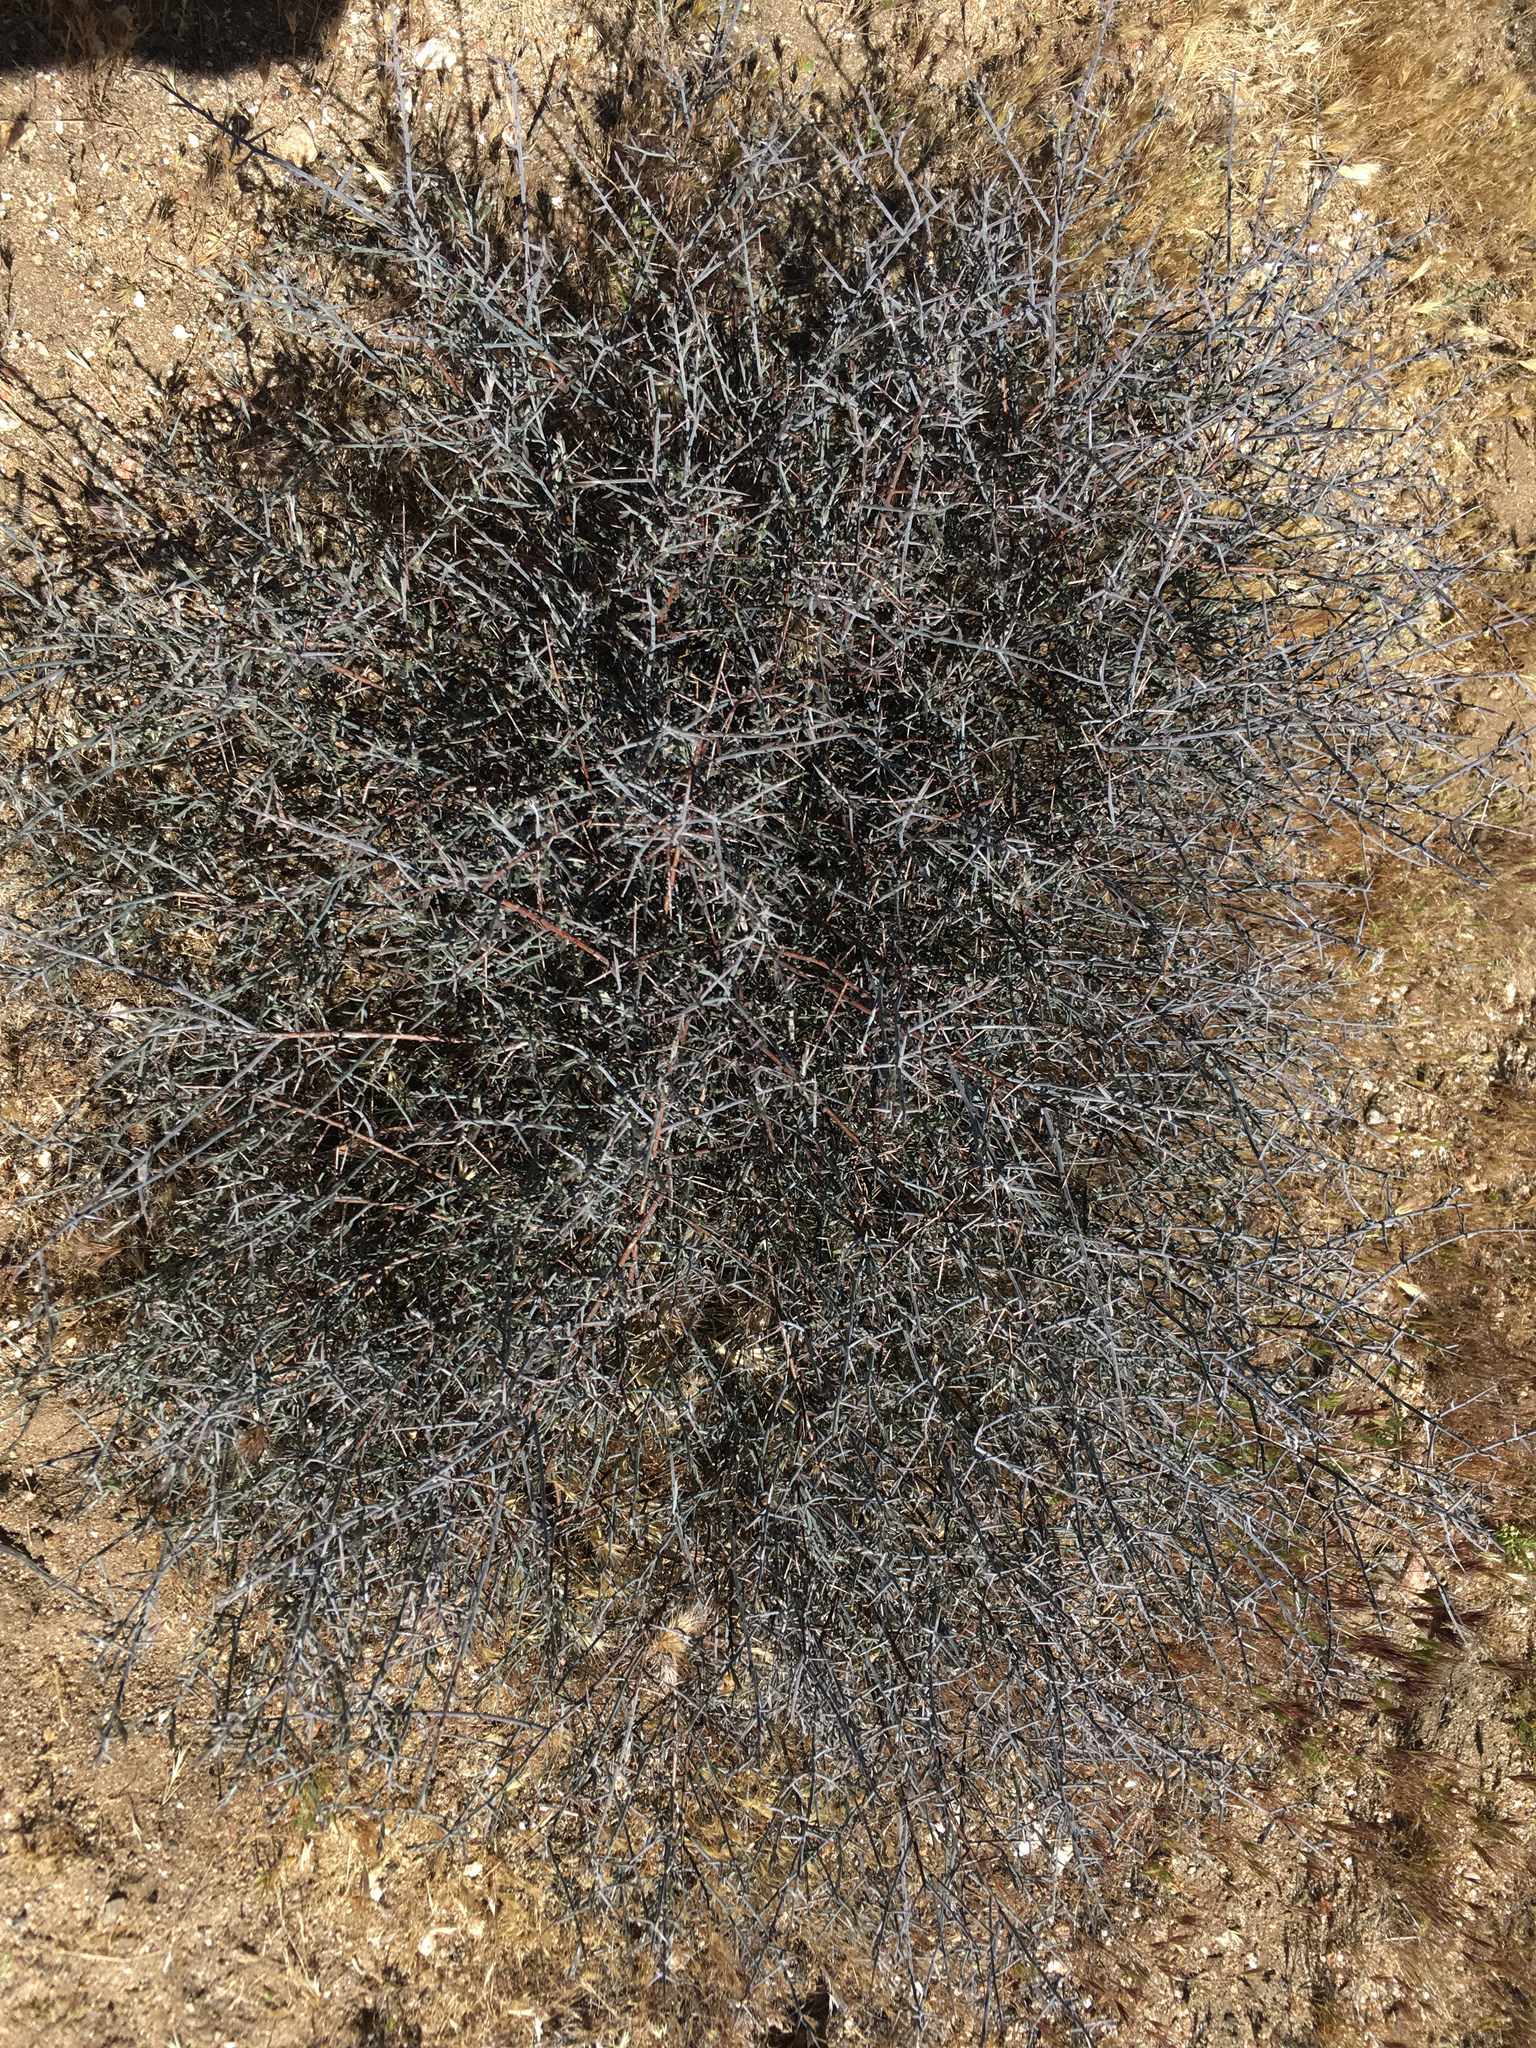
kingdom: Plantae
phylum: Tracheophyta
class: Magnoliopsida
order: Zygophyllales
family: Krameriaceae
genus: Krameria
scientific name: Krameria bicolor
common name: White ratany
